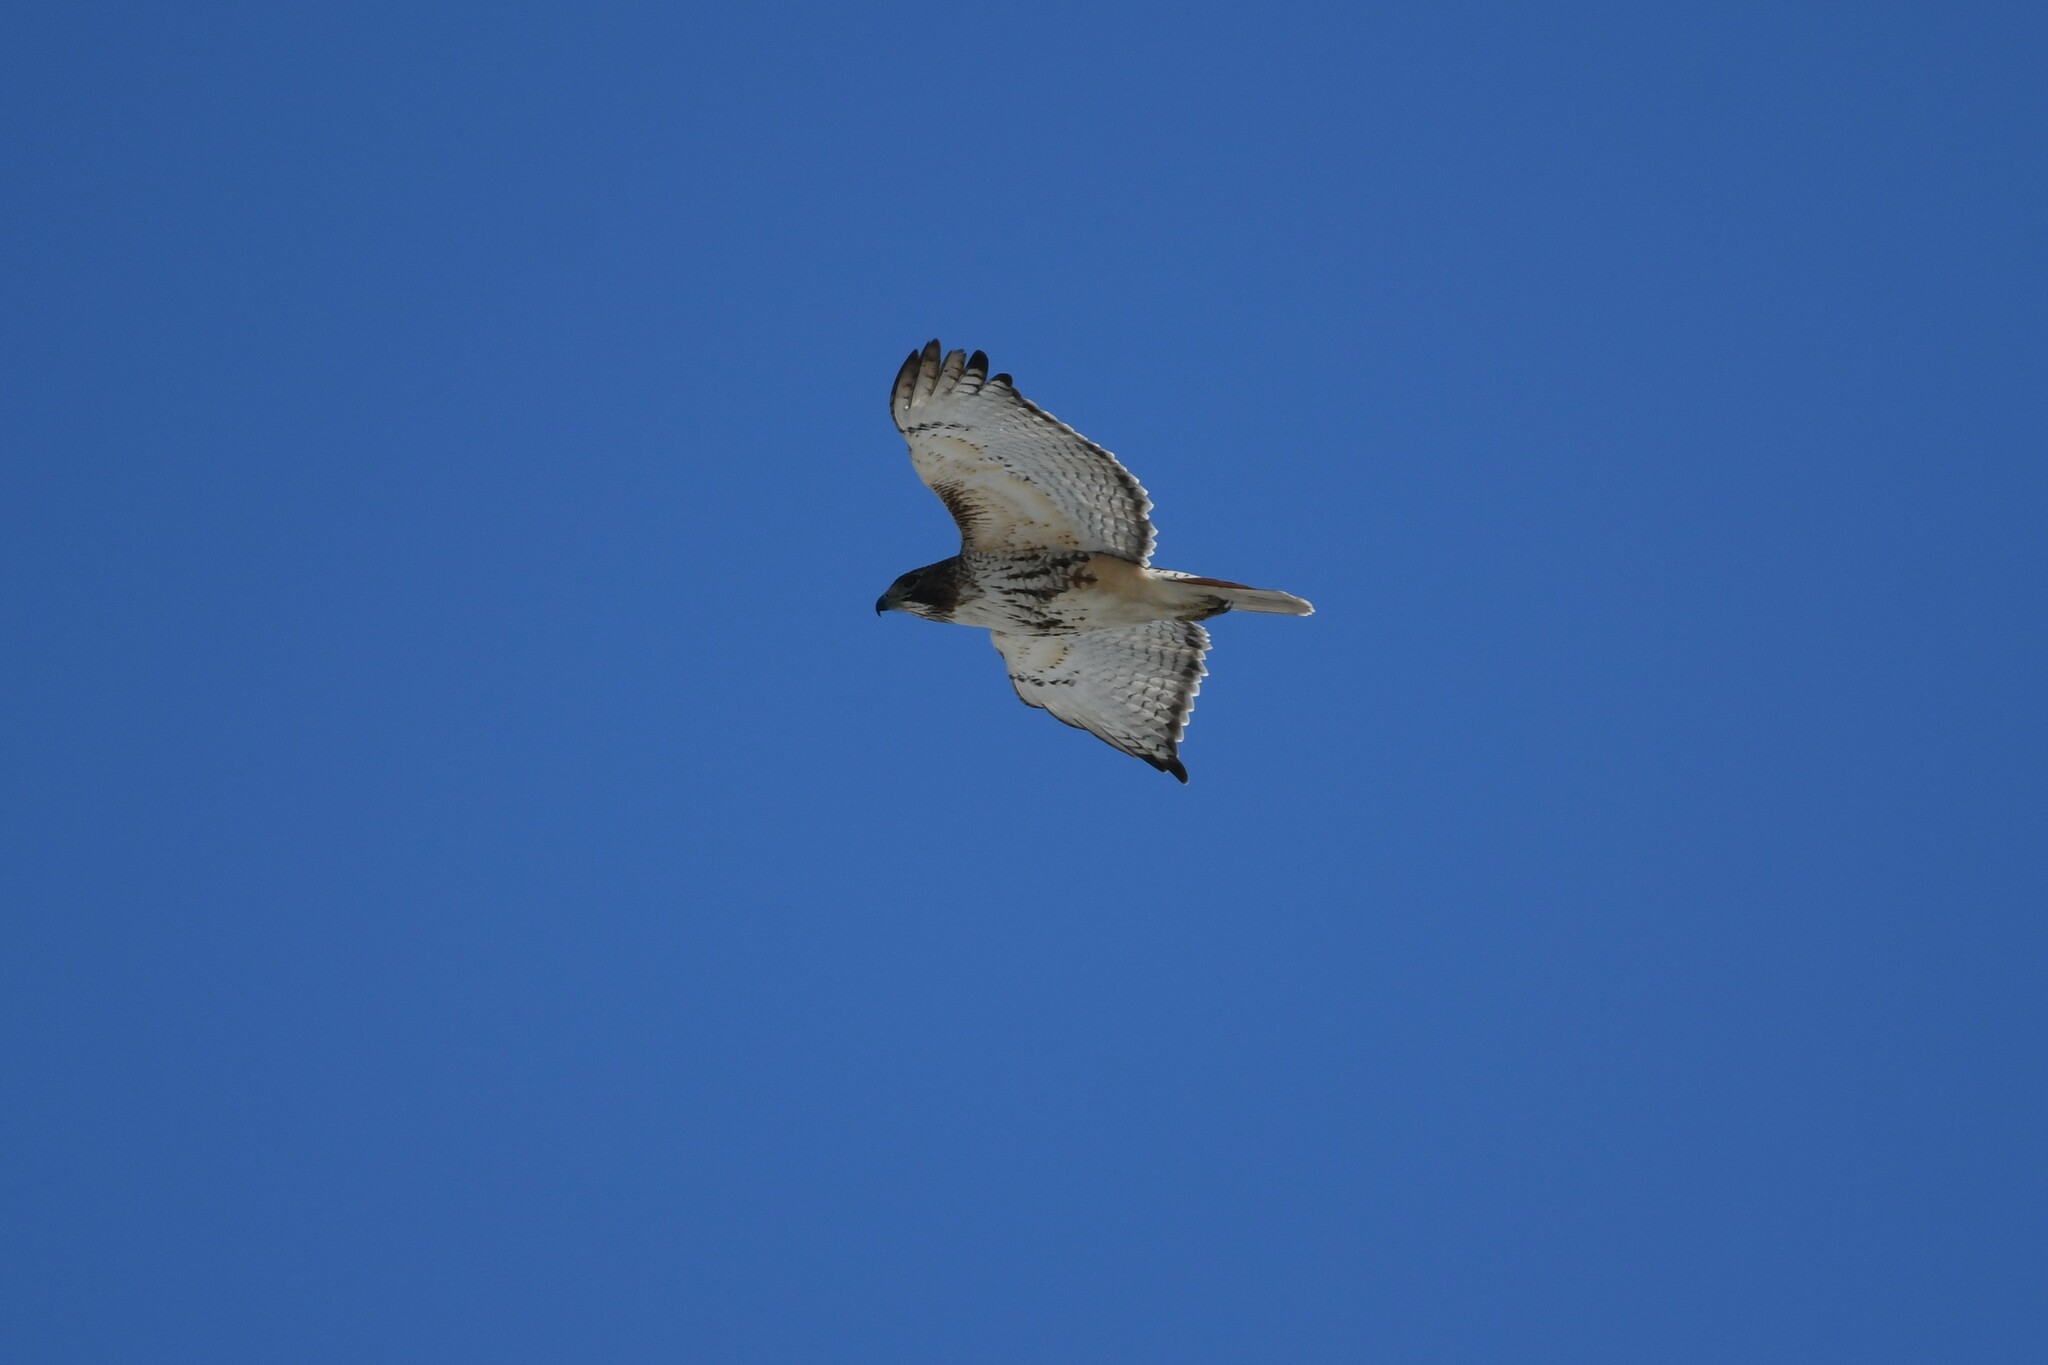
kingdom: Animalia
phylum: Chordata
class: Aves
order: Accipitriformes
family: Accipitridae
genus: Buteo
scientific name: Buteo jamaicensis
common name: Red-tailed hawk
